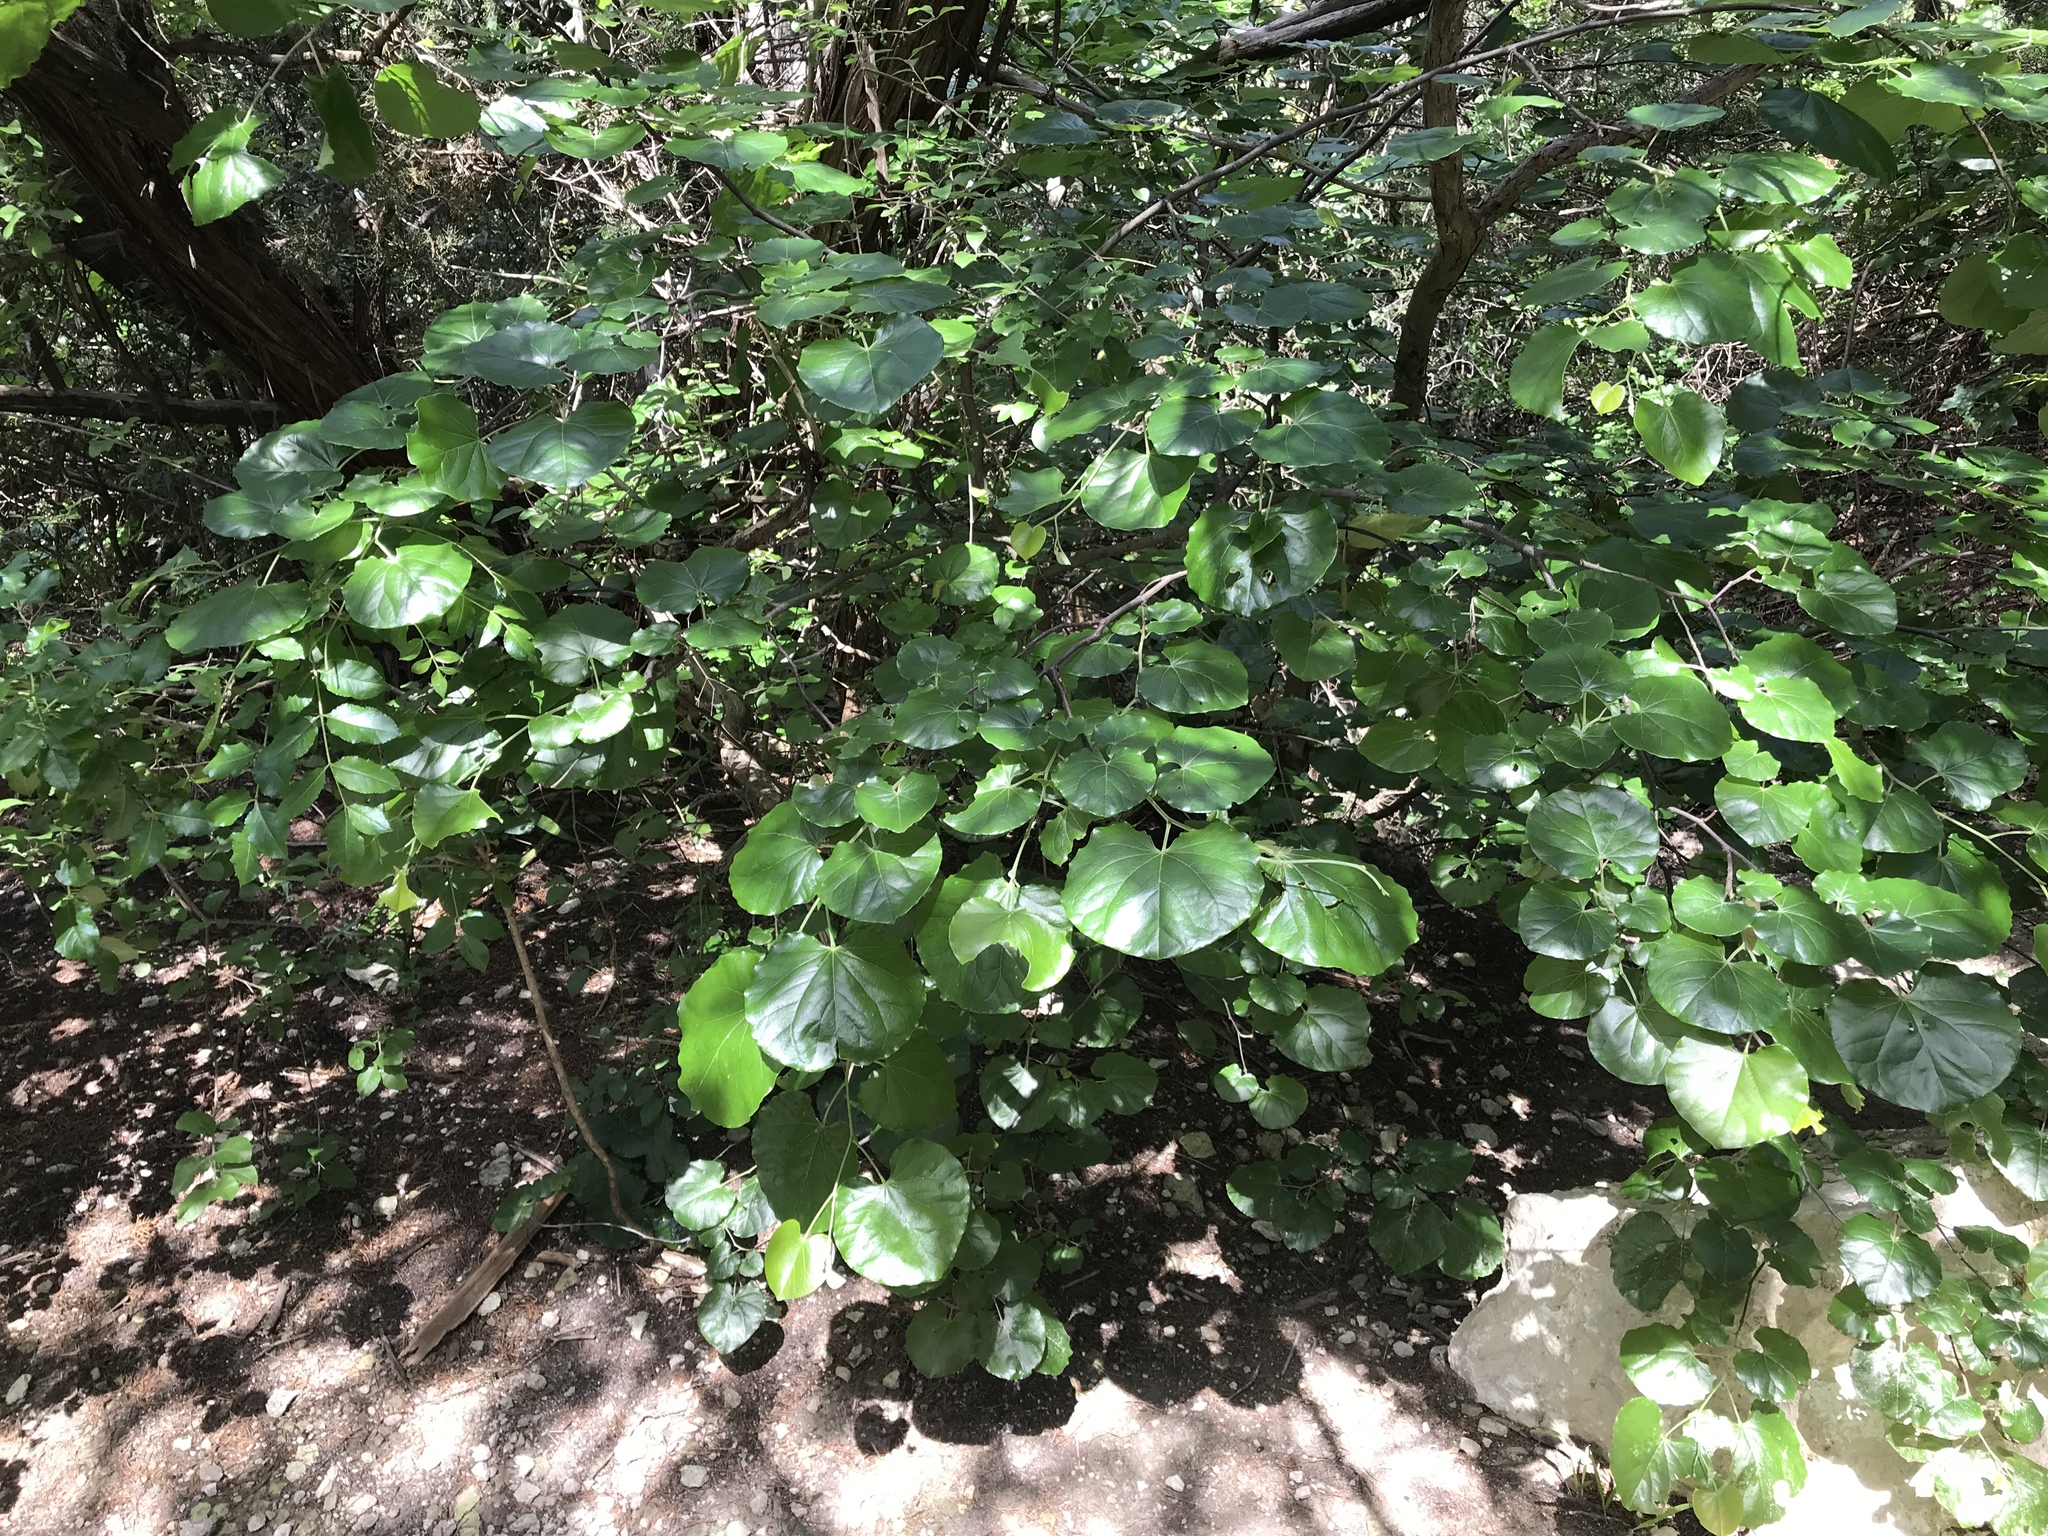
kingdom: Plantae
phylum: Tracheophyta
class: Magnoliopsida
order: Fabales
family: Fabaceae
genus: Cercis
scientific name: Cercis canadensis
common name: Eastern redbud
